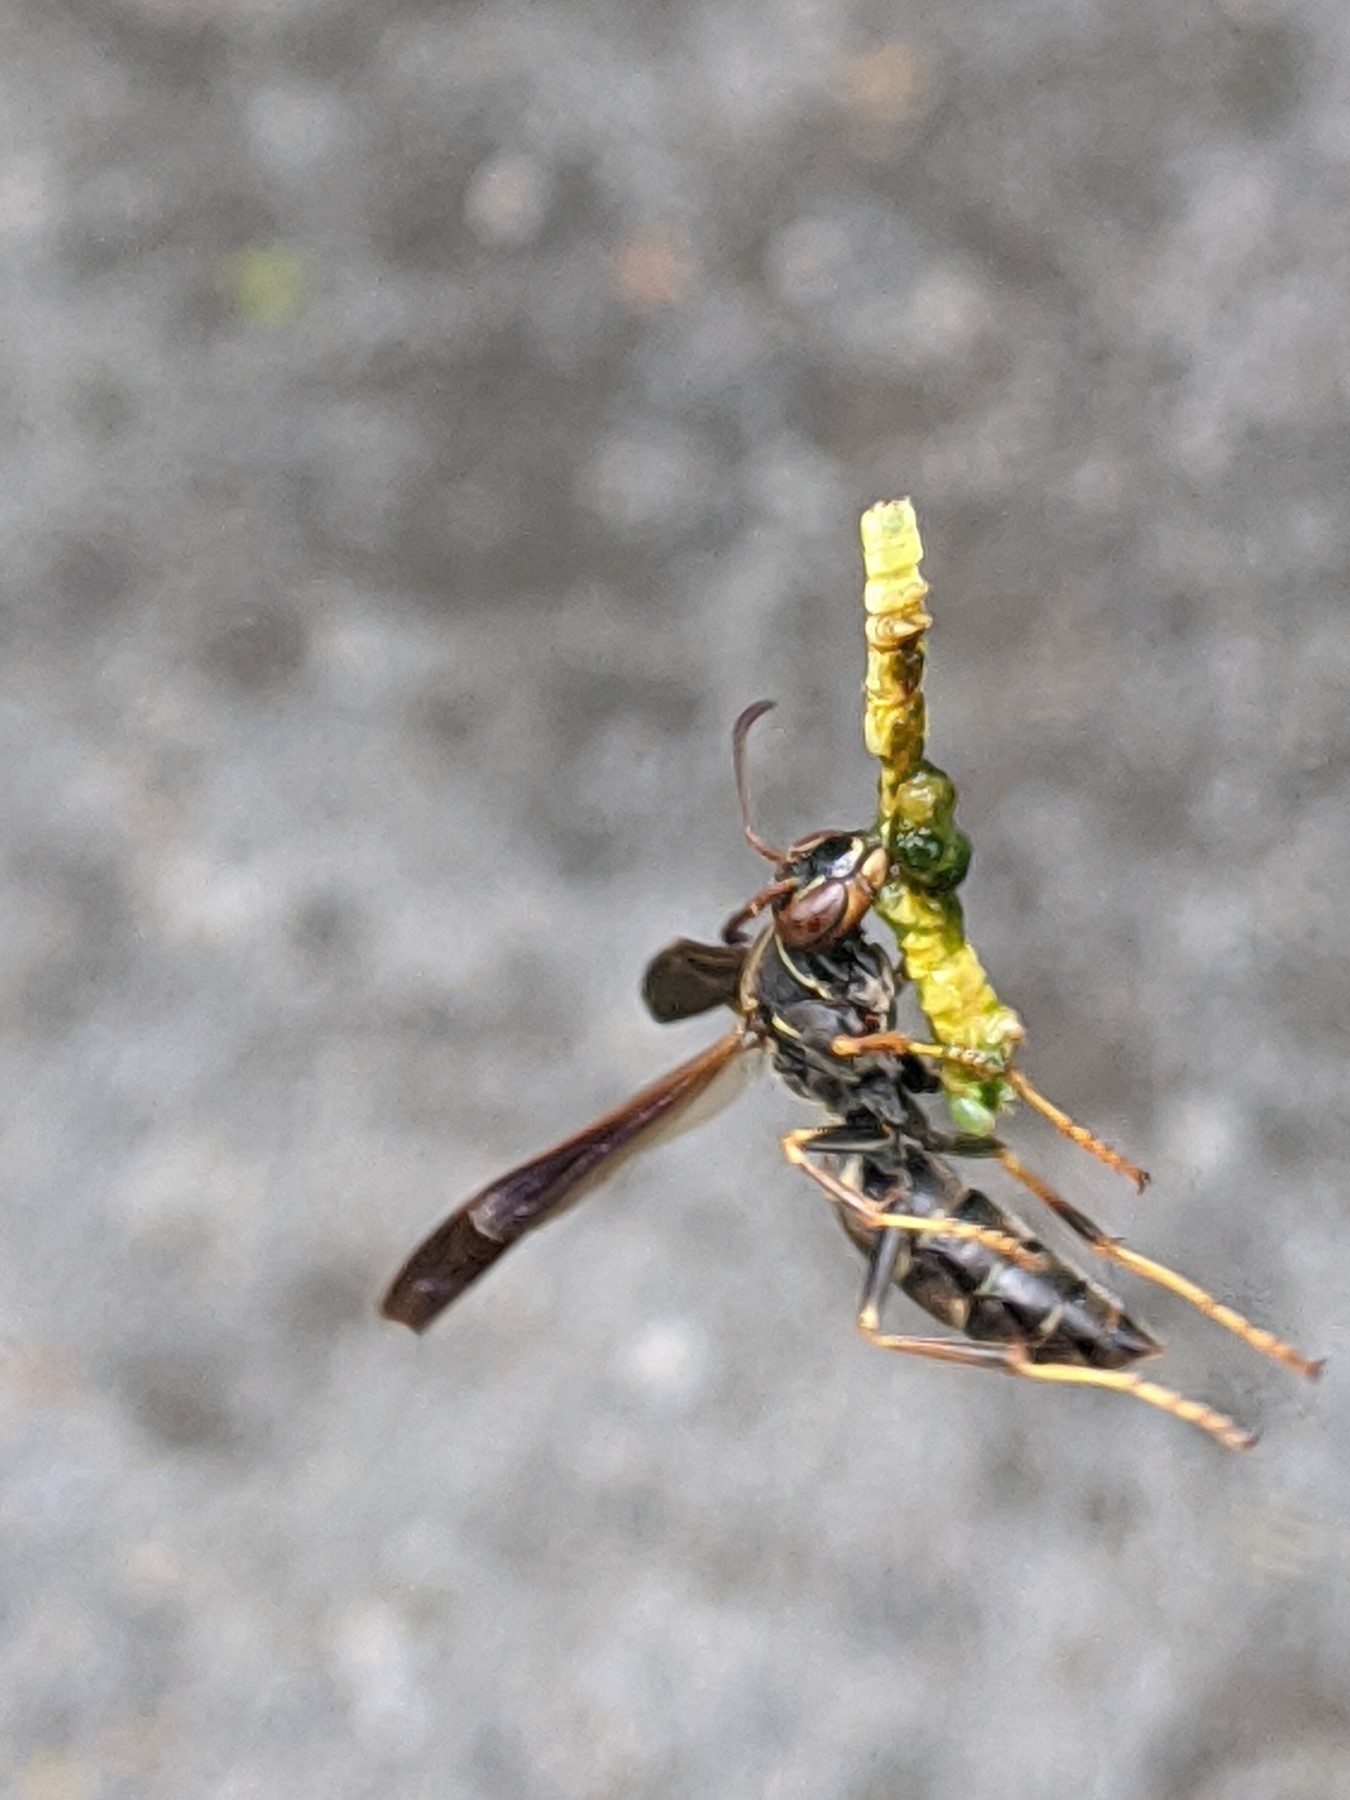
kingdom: Animalia
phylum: Arthropoda
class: Insecta
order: Hymenoptera
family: Eumenidae
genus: Polistes
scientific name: Polistes fuscatus
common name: Dark paper wasp
